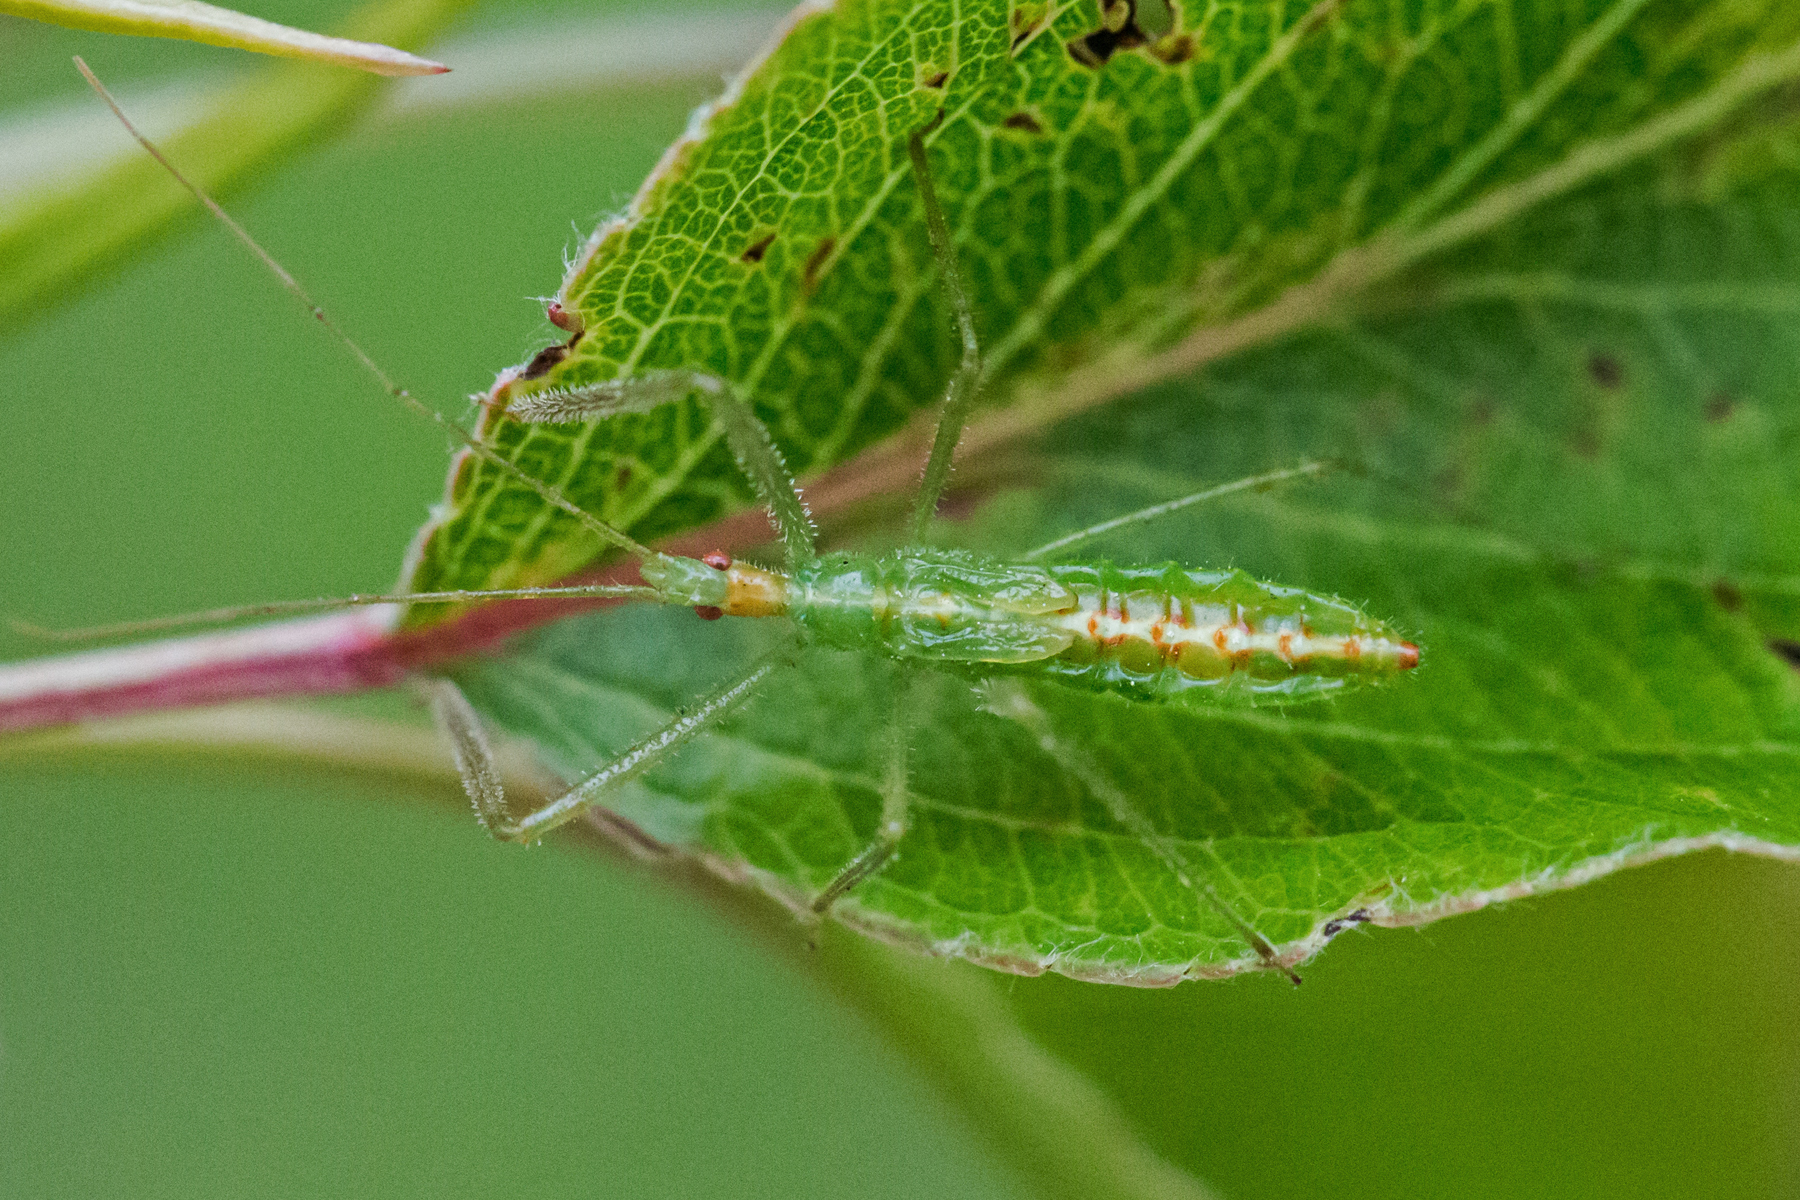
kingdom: Animalia
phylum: Arthropoda
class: Insecta
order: Hemiptera
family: Reduviidae
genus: Zelus
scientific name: Zelus luridus
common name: Pale green assassin bug
